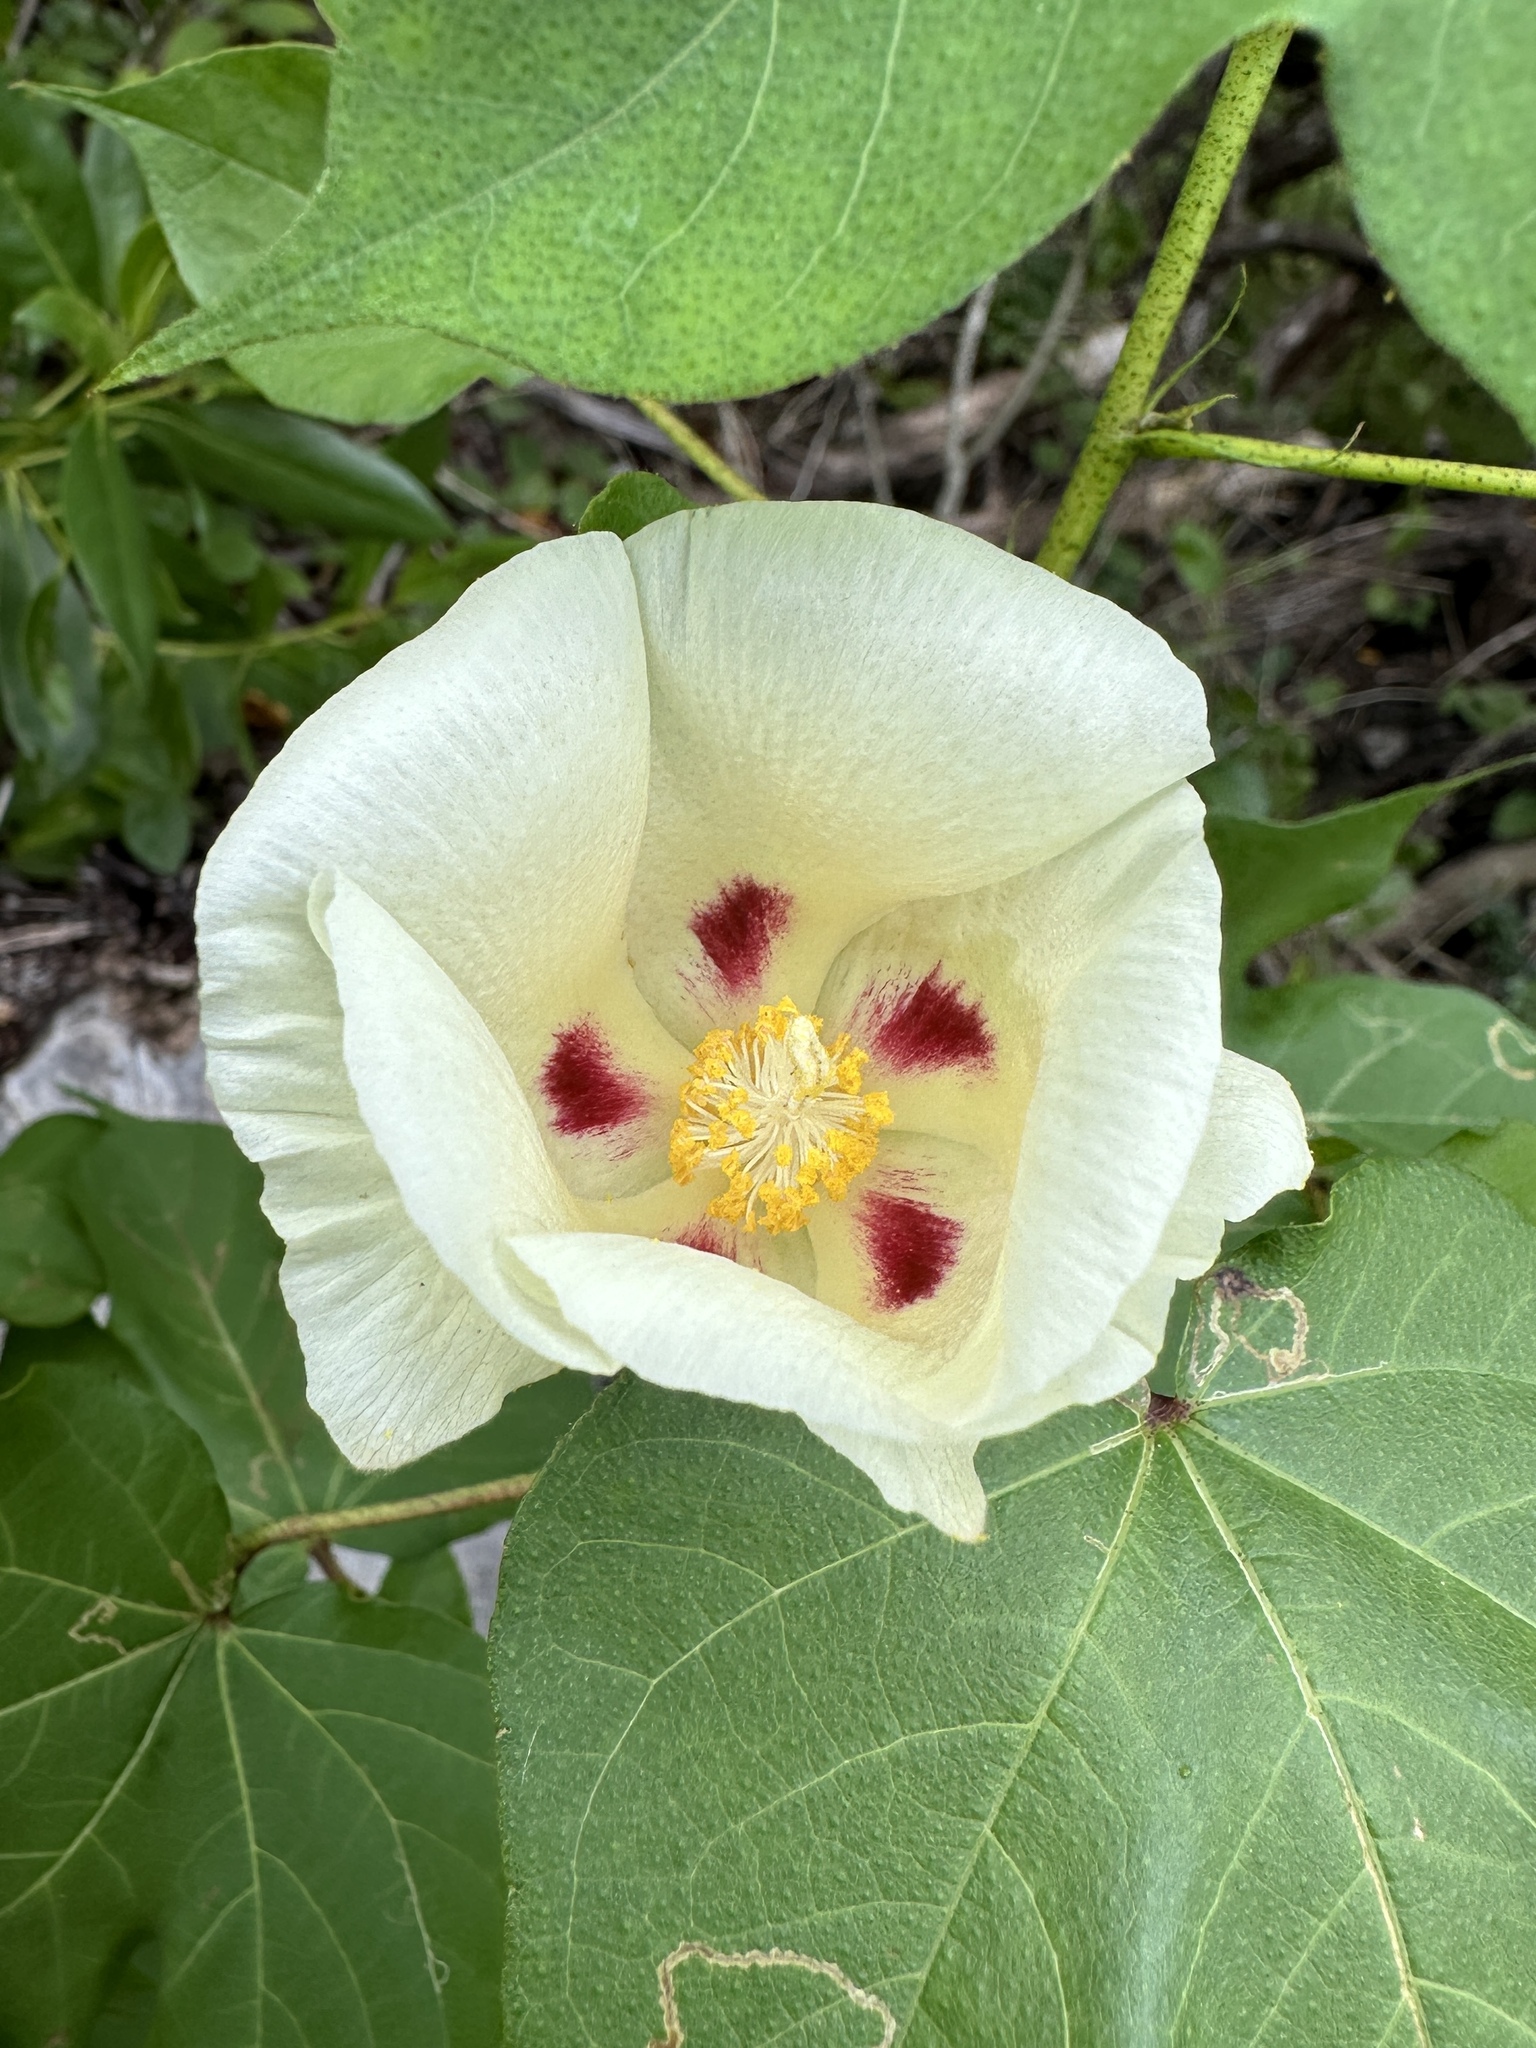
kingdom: Plantae
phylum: Tracheophyta
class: Magnoliopsida
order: Malvales
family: Malvaceae
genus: Gossypium
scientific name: Gossypium hirsutum
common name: Cotton
